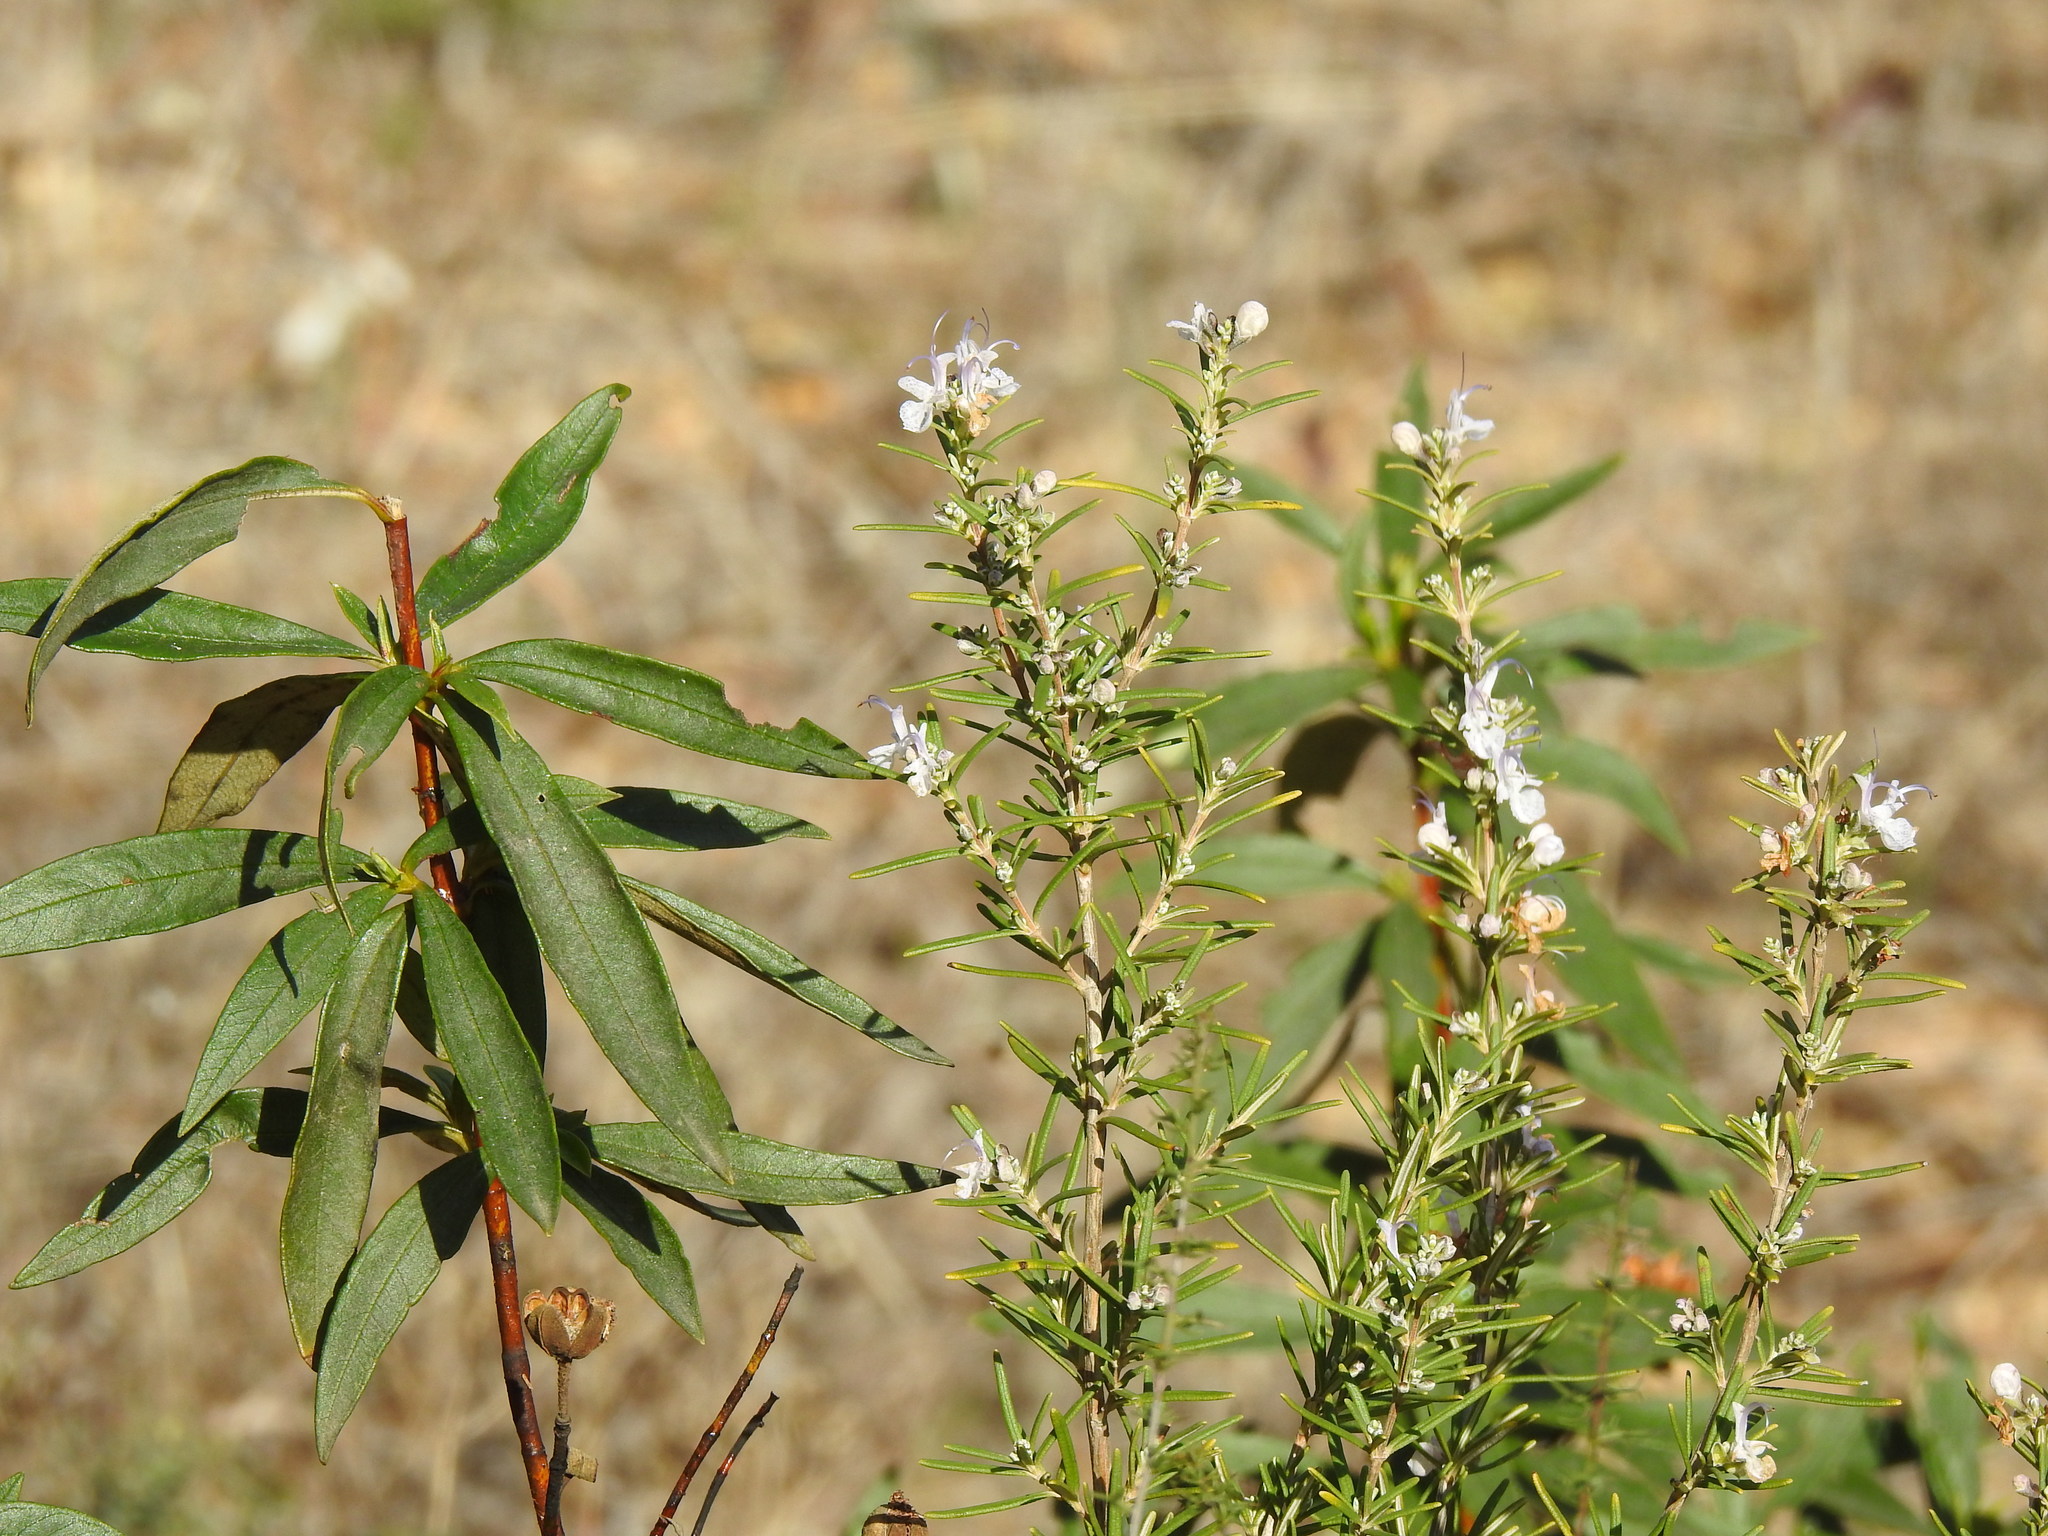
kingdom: Plantae
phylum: Tracheophyta
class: Magnoliopsida
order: Malvales
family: Cistaceae
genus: Cistus
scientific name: Cistus ladanifer
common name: Common gum cistus
